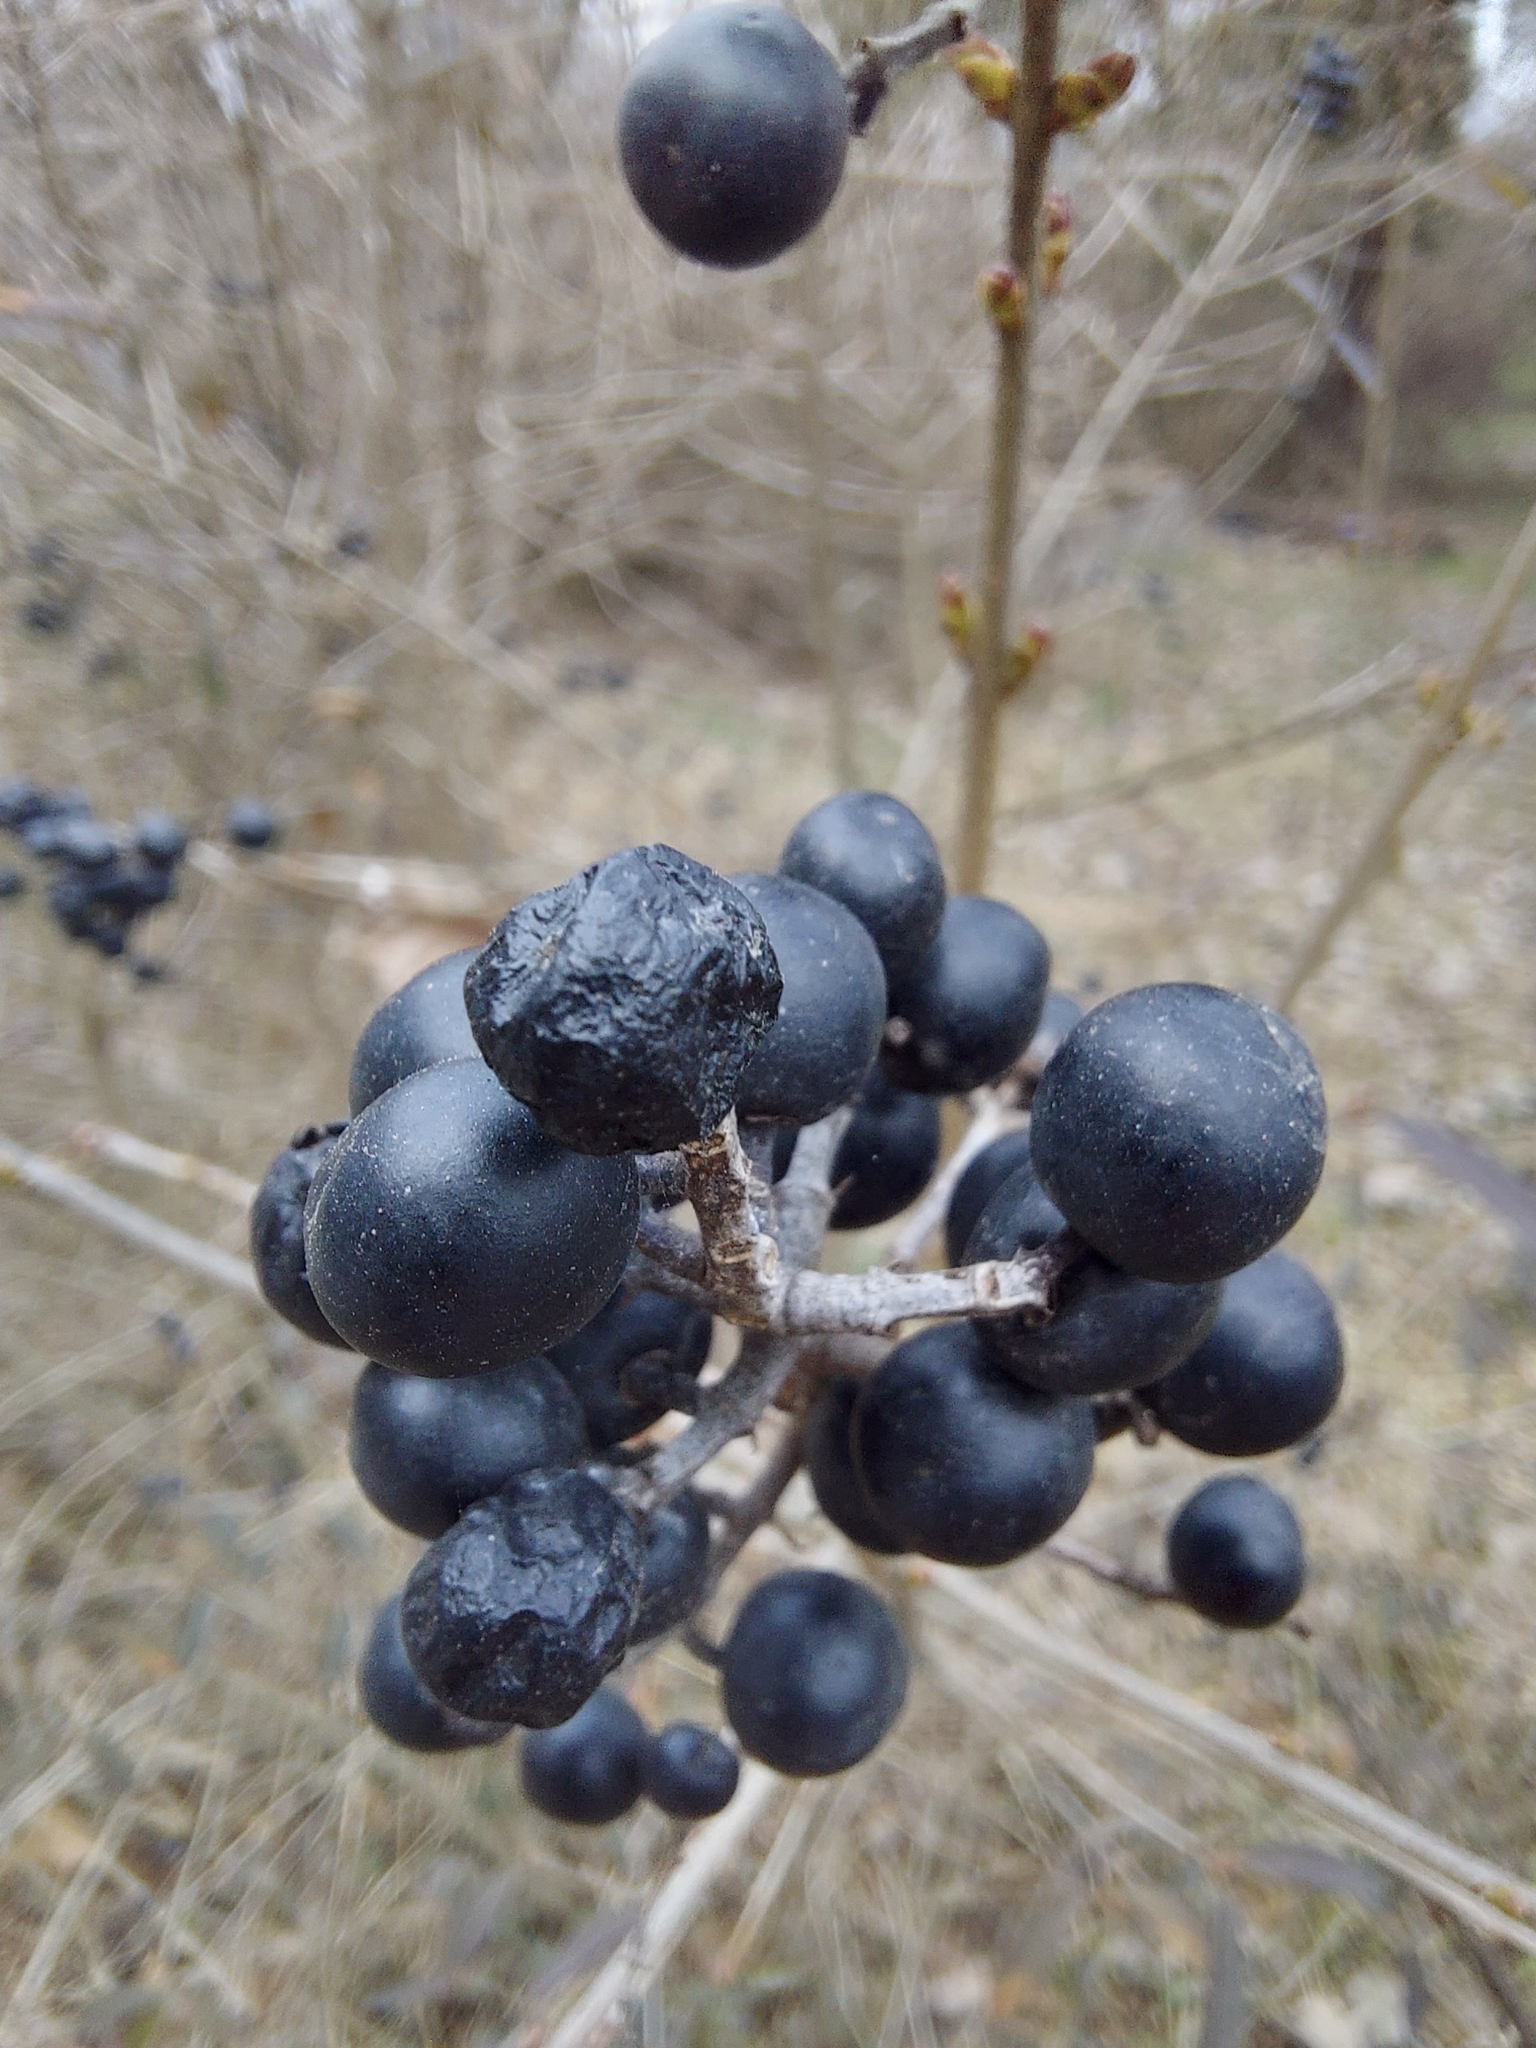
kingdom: Plantae
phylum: Tracheophyta
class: Magnoliopsida
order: Lamiales
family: Oleaceae
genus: Ligustrum
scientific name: Ligustrum vulgare
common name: Wild privet
